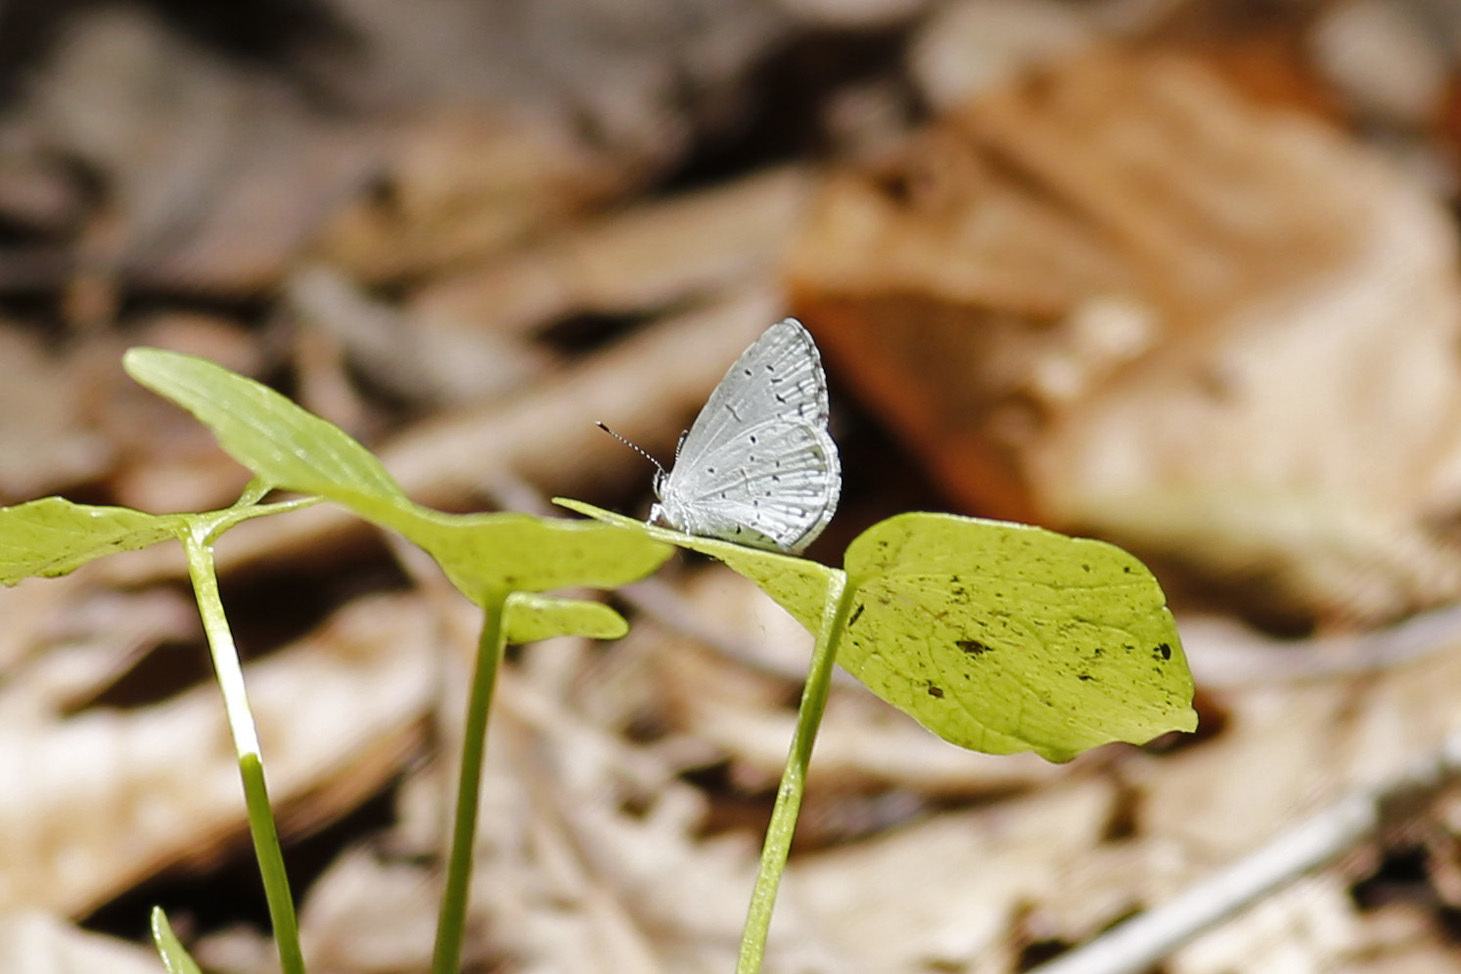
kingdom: Animalia
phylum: Arthropoda
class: Insecta
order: Lepidoptera
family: Lycaenidae
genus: Cyaniris
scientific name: Cyaniris neglecta
